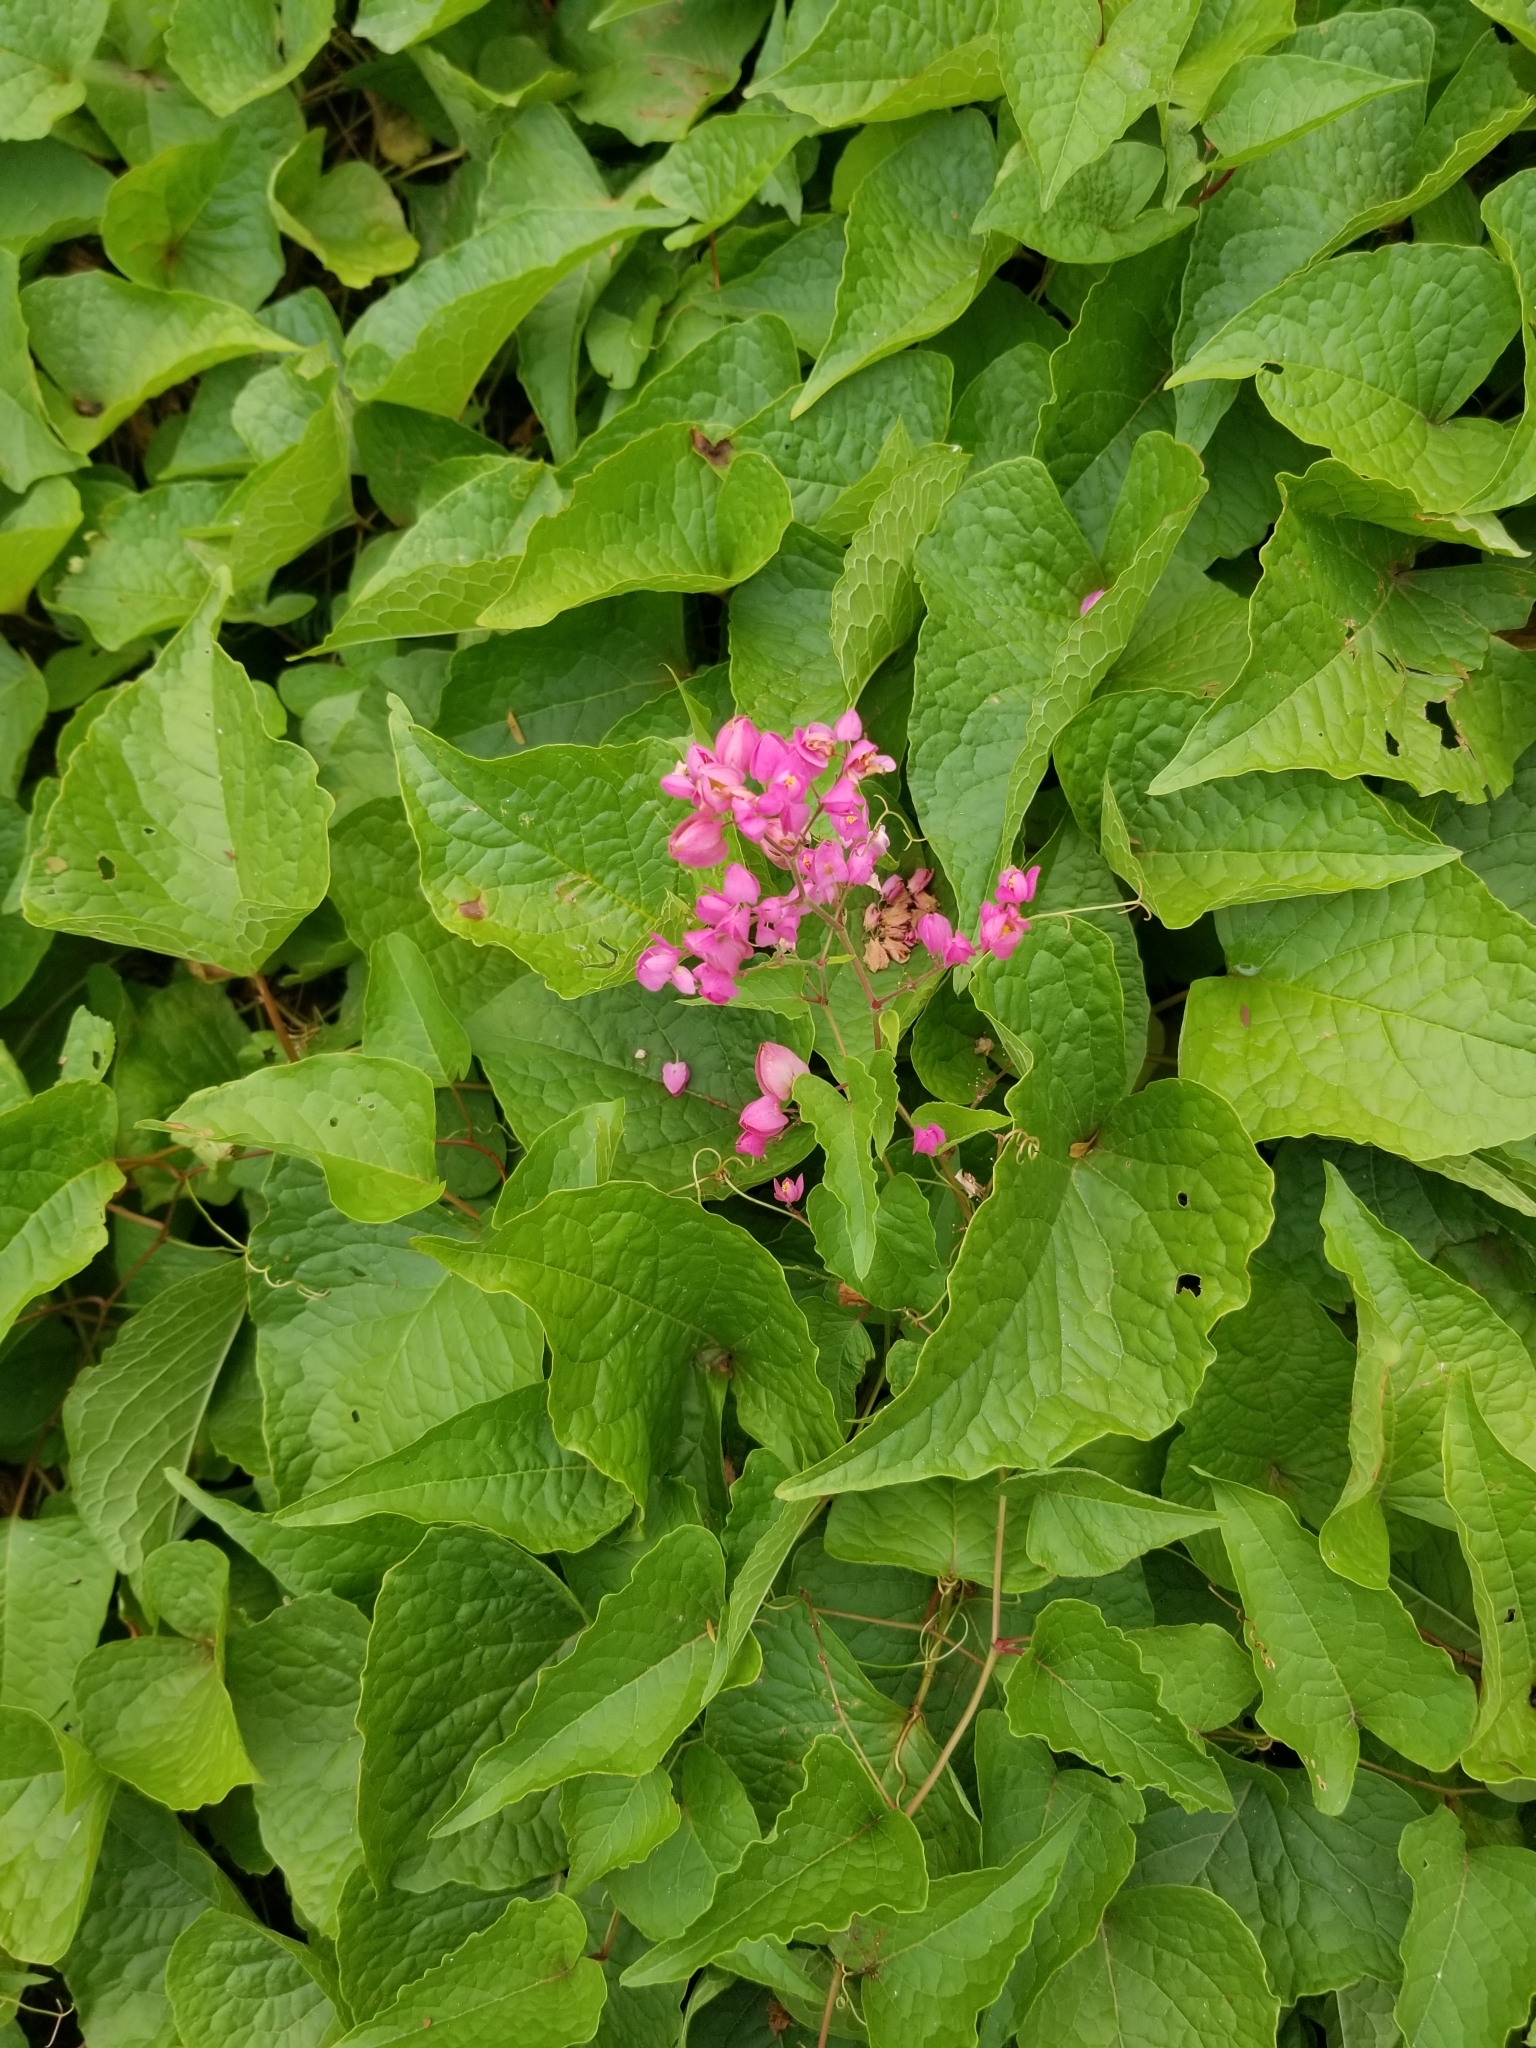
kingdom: Plantae
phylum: Tracheophyta
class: Magnoliopsida
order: Caryophyllales
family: Polygonaceae
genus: Antigonon
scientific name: Antigonon leptopus
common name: Coral vine
